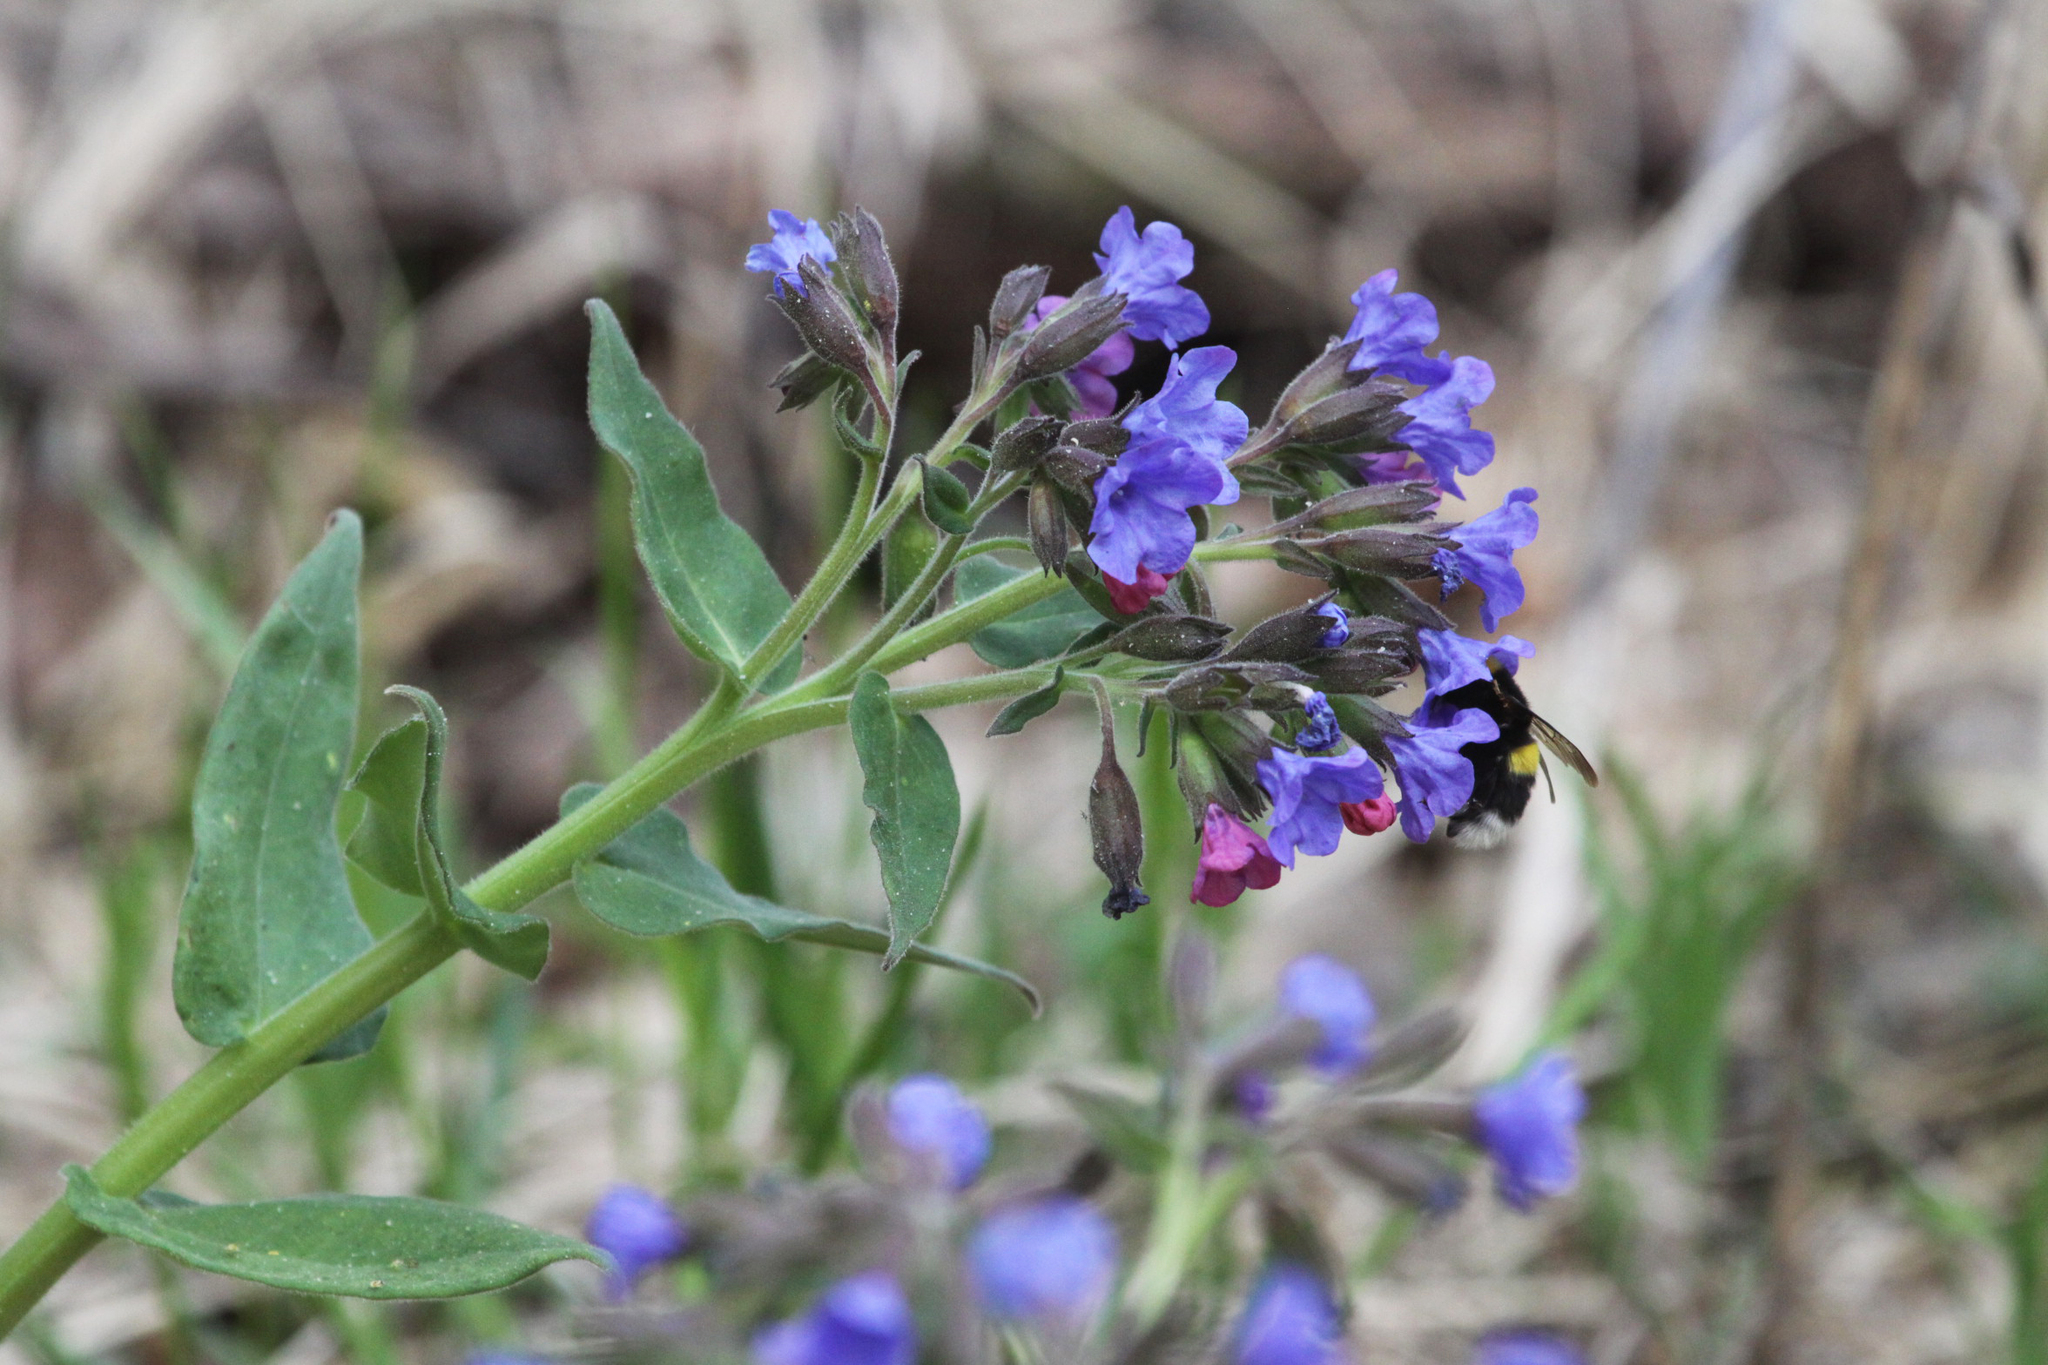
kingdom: Plantae
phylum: Tracheophyta
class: Magnoliopsida
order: Boraginales
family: Boraginaceae
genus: Pulmonaria
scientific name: Pulmonaria mollis
